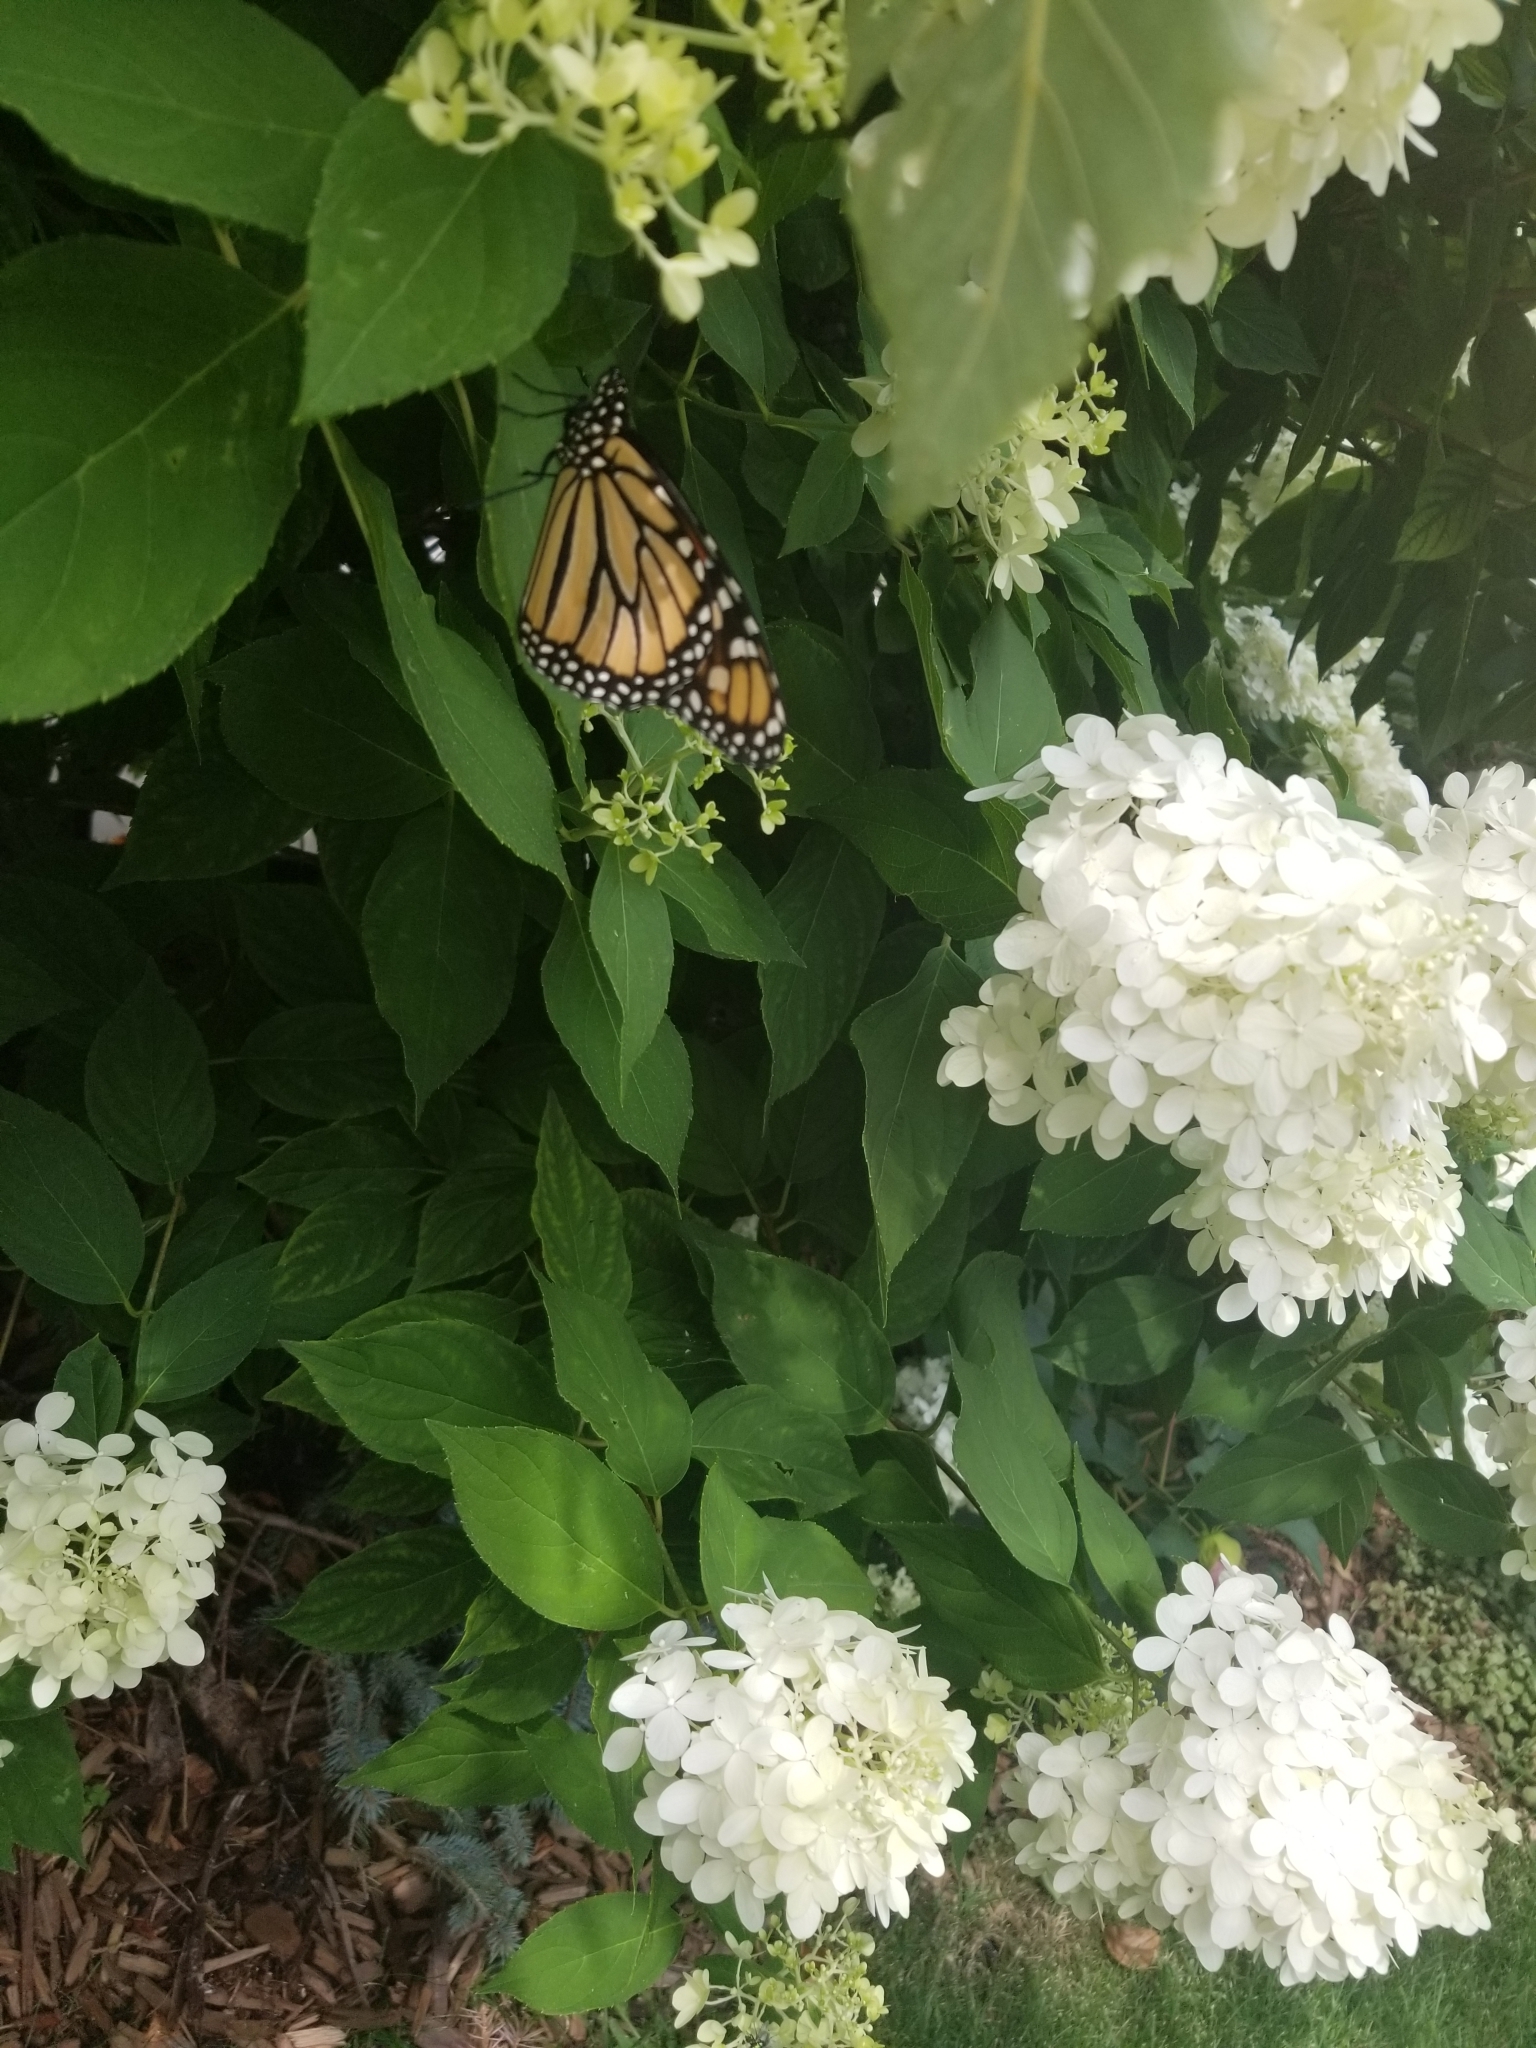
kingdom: Animalia
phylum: Arthropoda
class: Insecta
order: Lepidoptera
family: Nymphalidae
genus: Danaus
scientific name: Danaus plexippus
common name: Monarch
